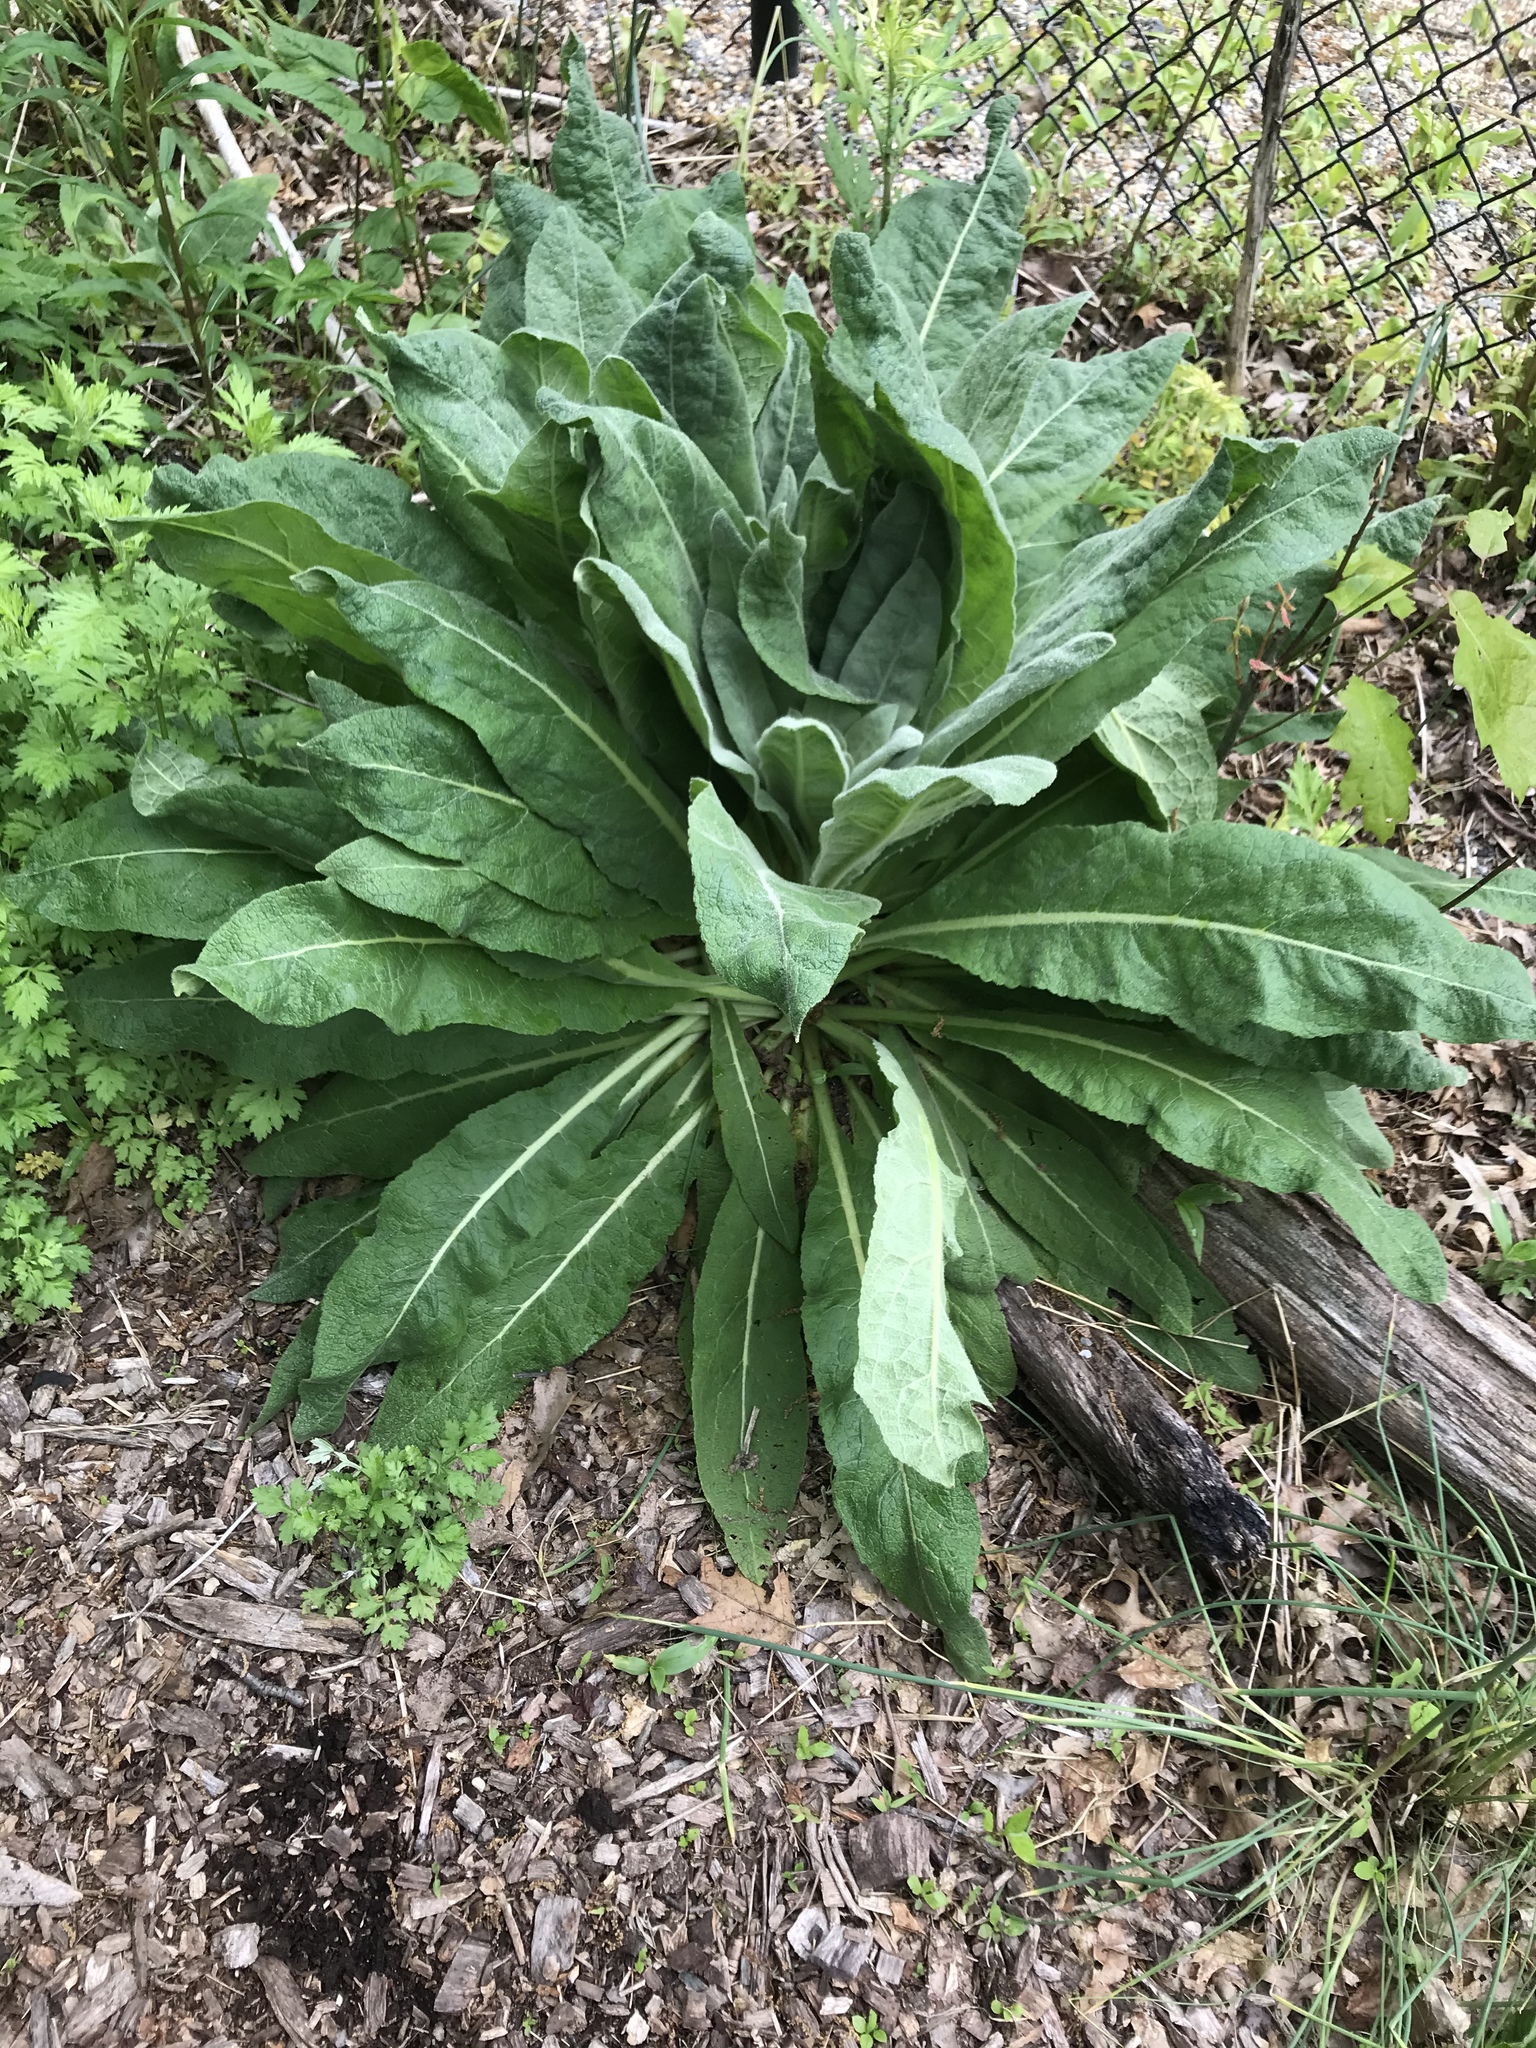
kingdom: Plantae
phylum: Tracheophyta
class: Magnoliopsida
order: Lamiales
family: Scrophulariaceae
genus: Verbascum
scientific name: Verbascum thapsus
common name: Common mullein
